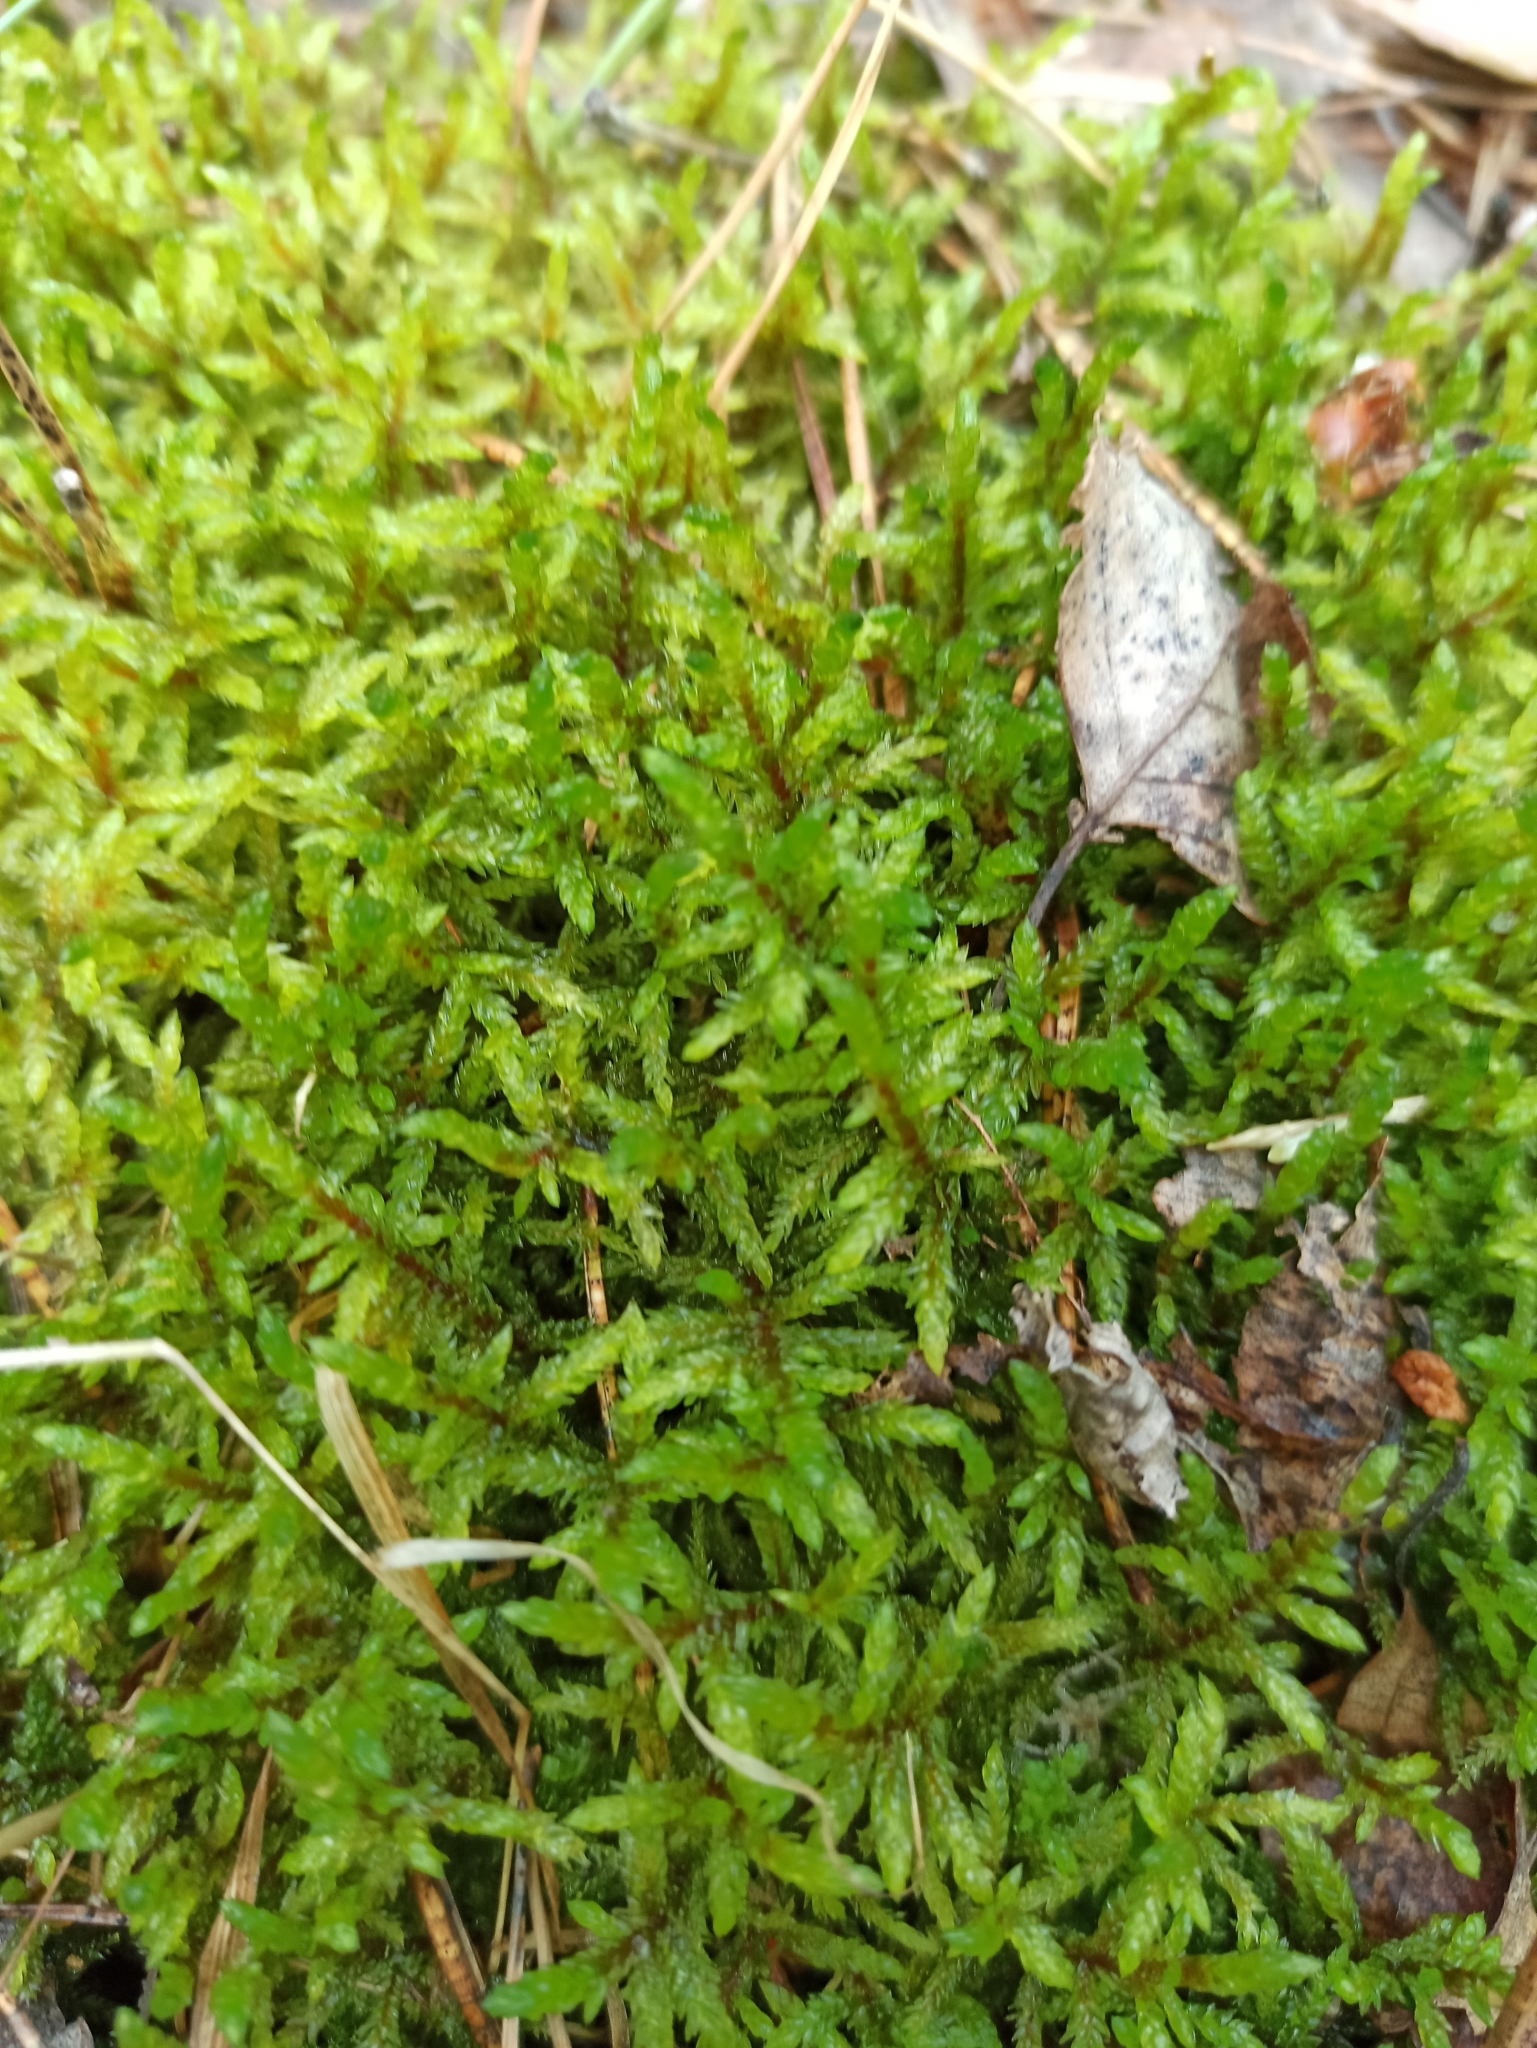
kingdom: Plantae
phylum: Bryophyta
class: Bryopsida
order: Hypnales
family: Hylocomiaceae
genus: Pleurozium
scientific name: Pleurozium schreberi
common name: Red-stemmed feather moss
